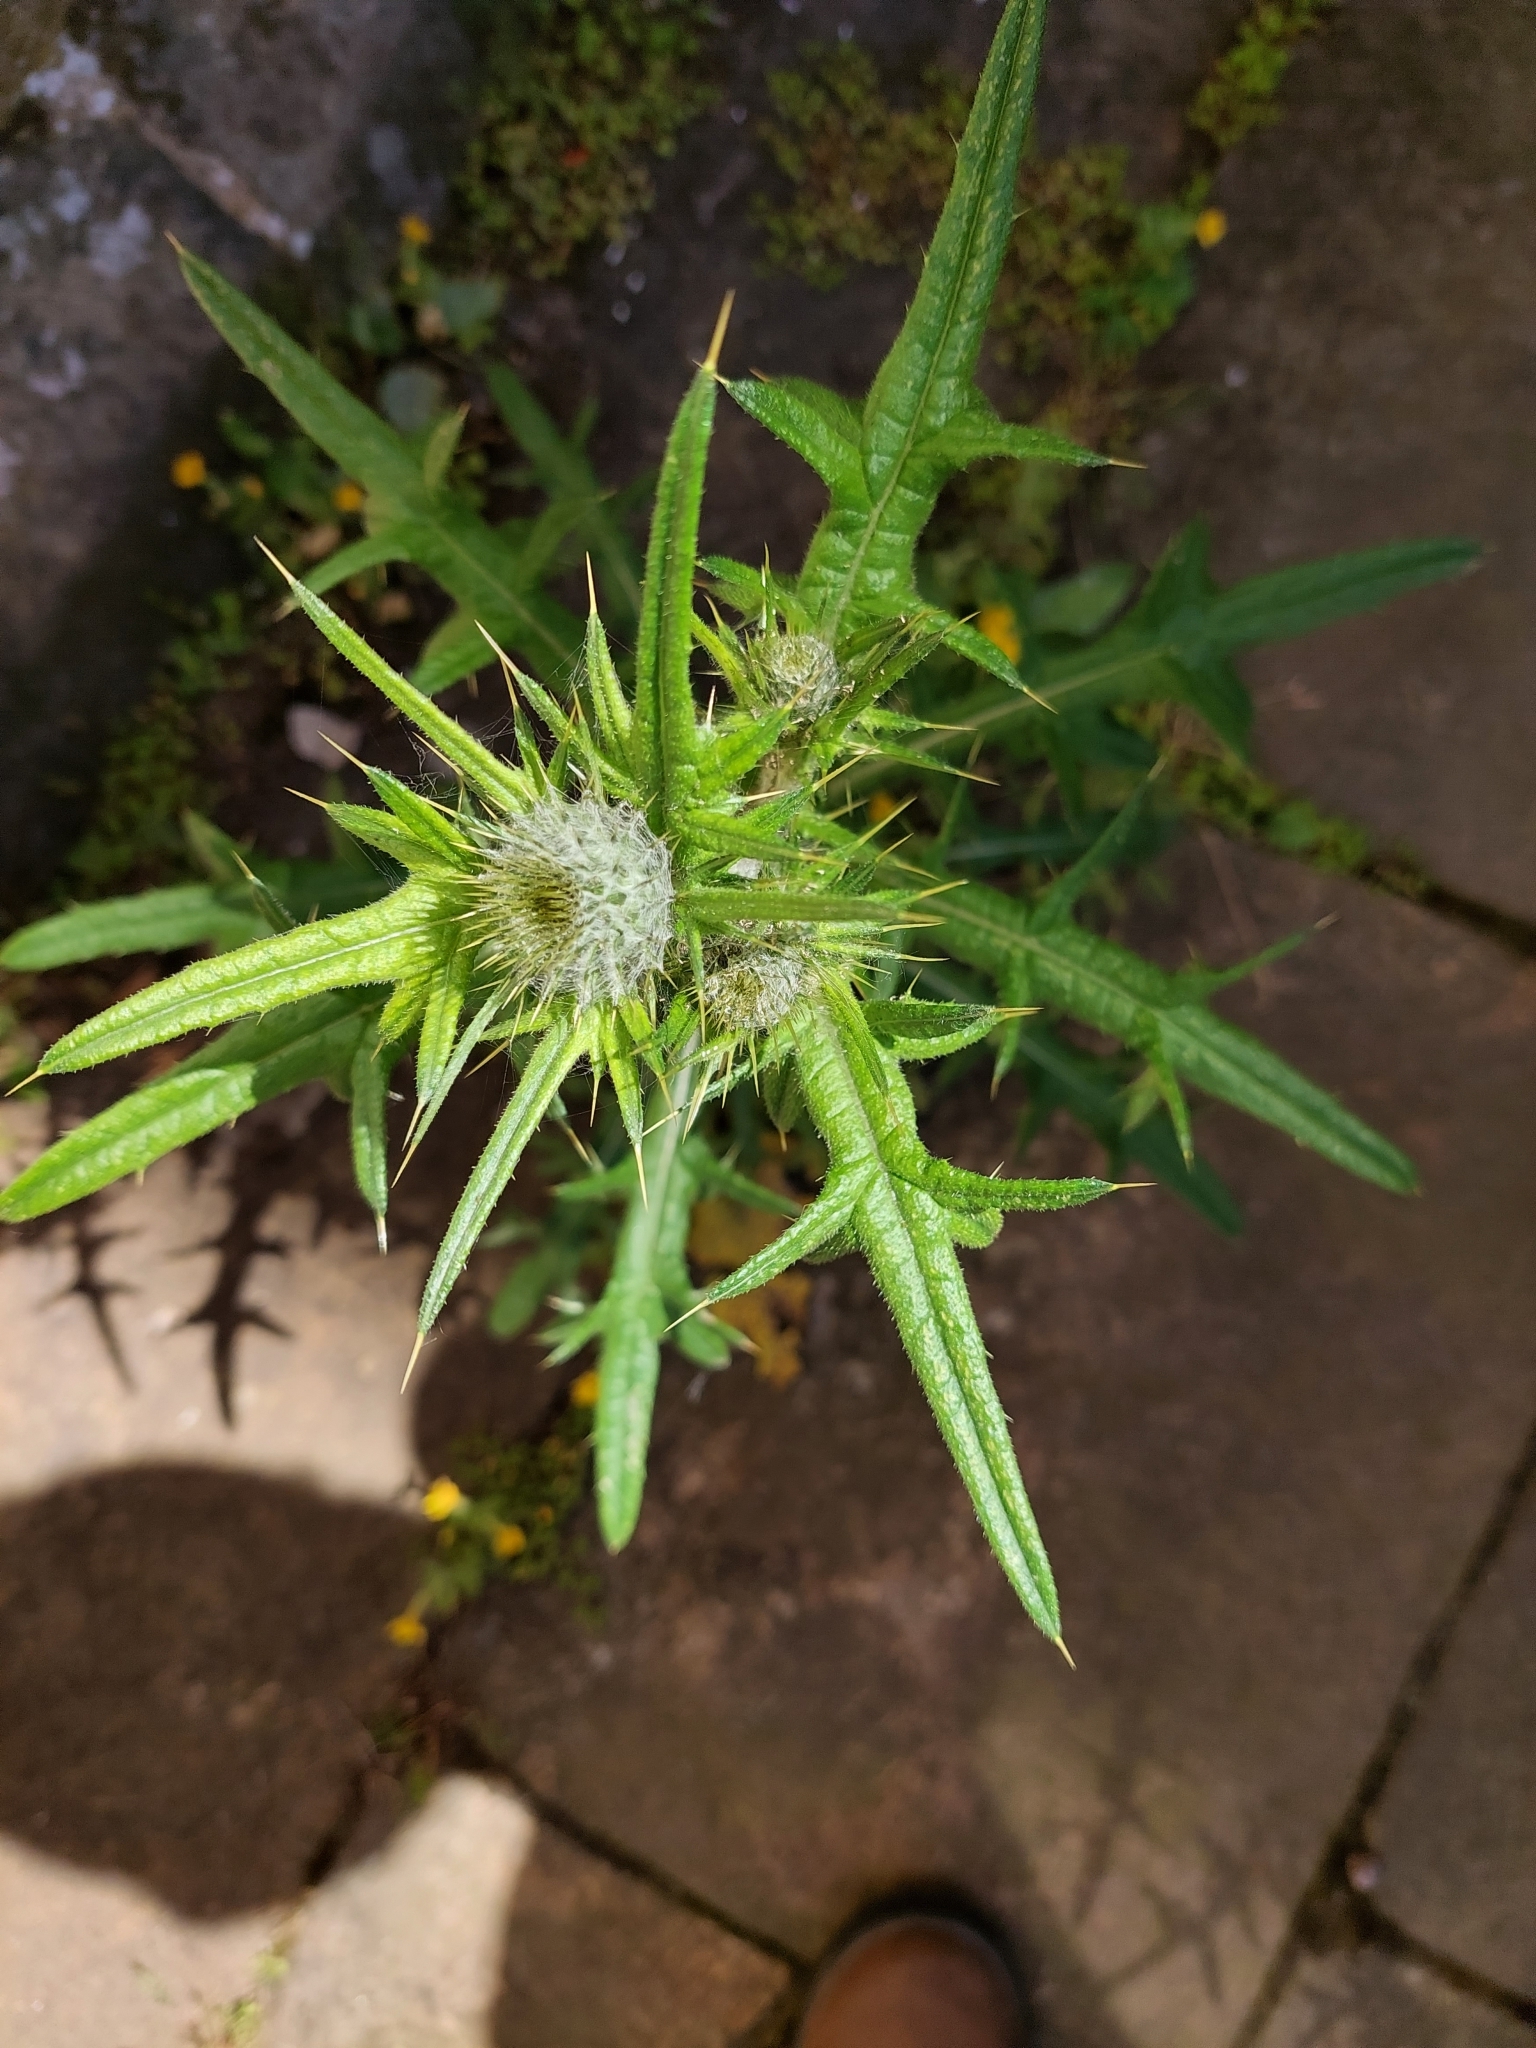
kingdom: Plantae
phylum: Tracheophyta
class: Magnoliopsida
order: Asterales
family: Asteraceae
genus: Cirsium
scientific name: Cirsium vulgare
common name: Bull thistle
